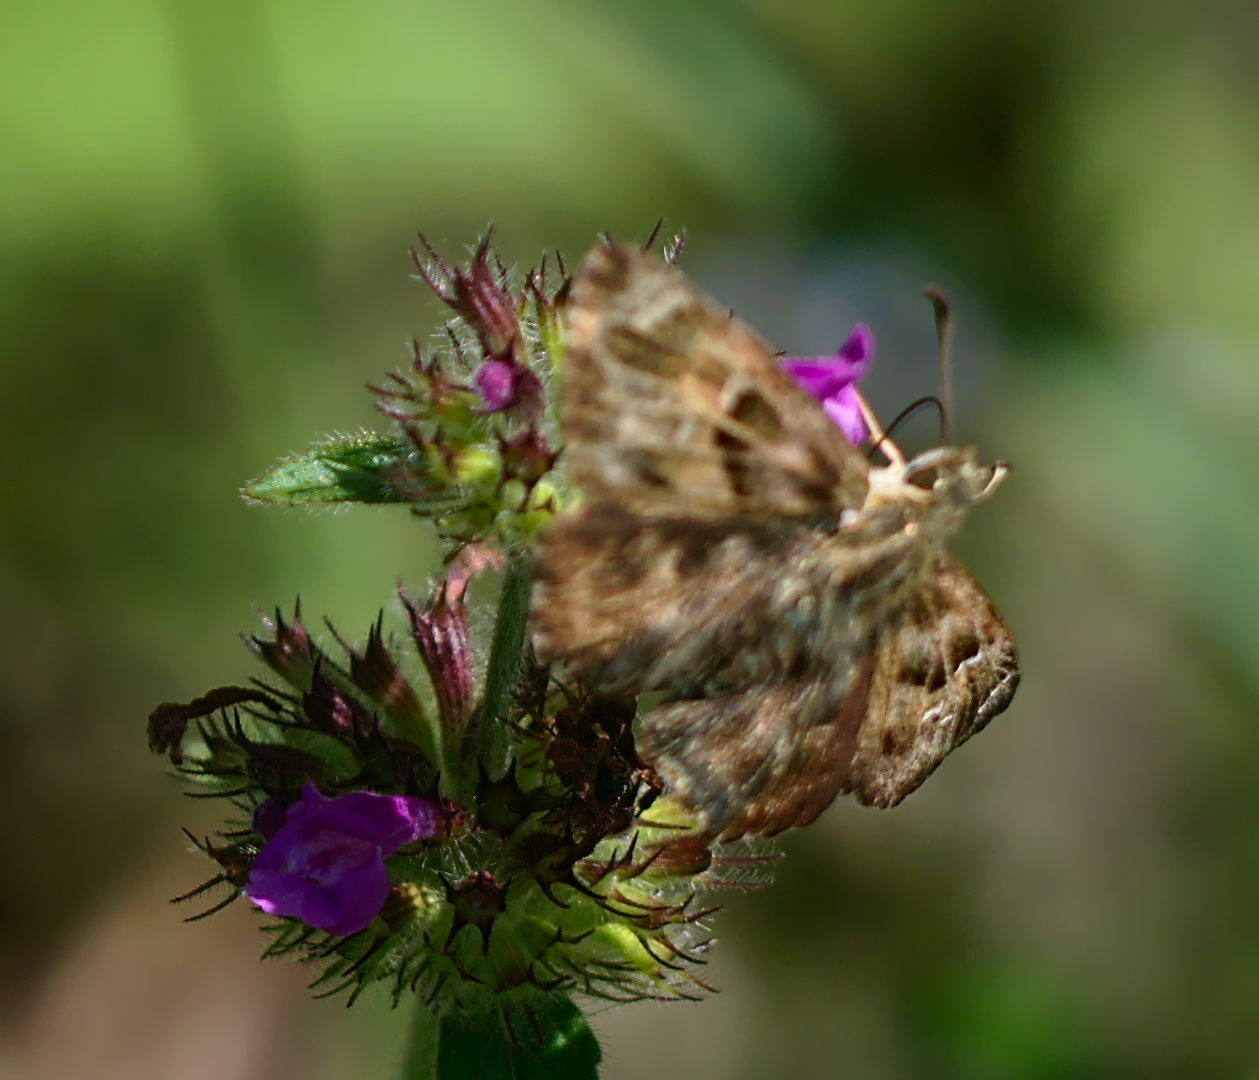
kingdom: Animalia
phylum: Arthropoda
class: Insecta
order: Lepidoptera
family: Hesperiidae
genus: Carcharodus
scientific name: Carcharodus alceae
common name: Mallow skipper
